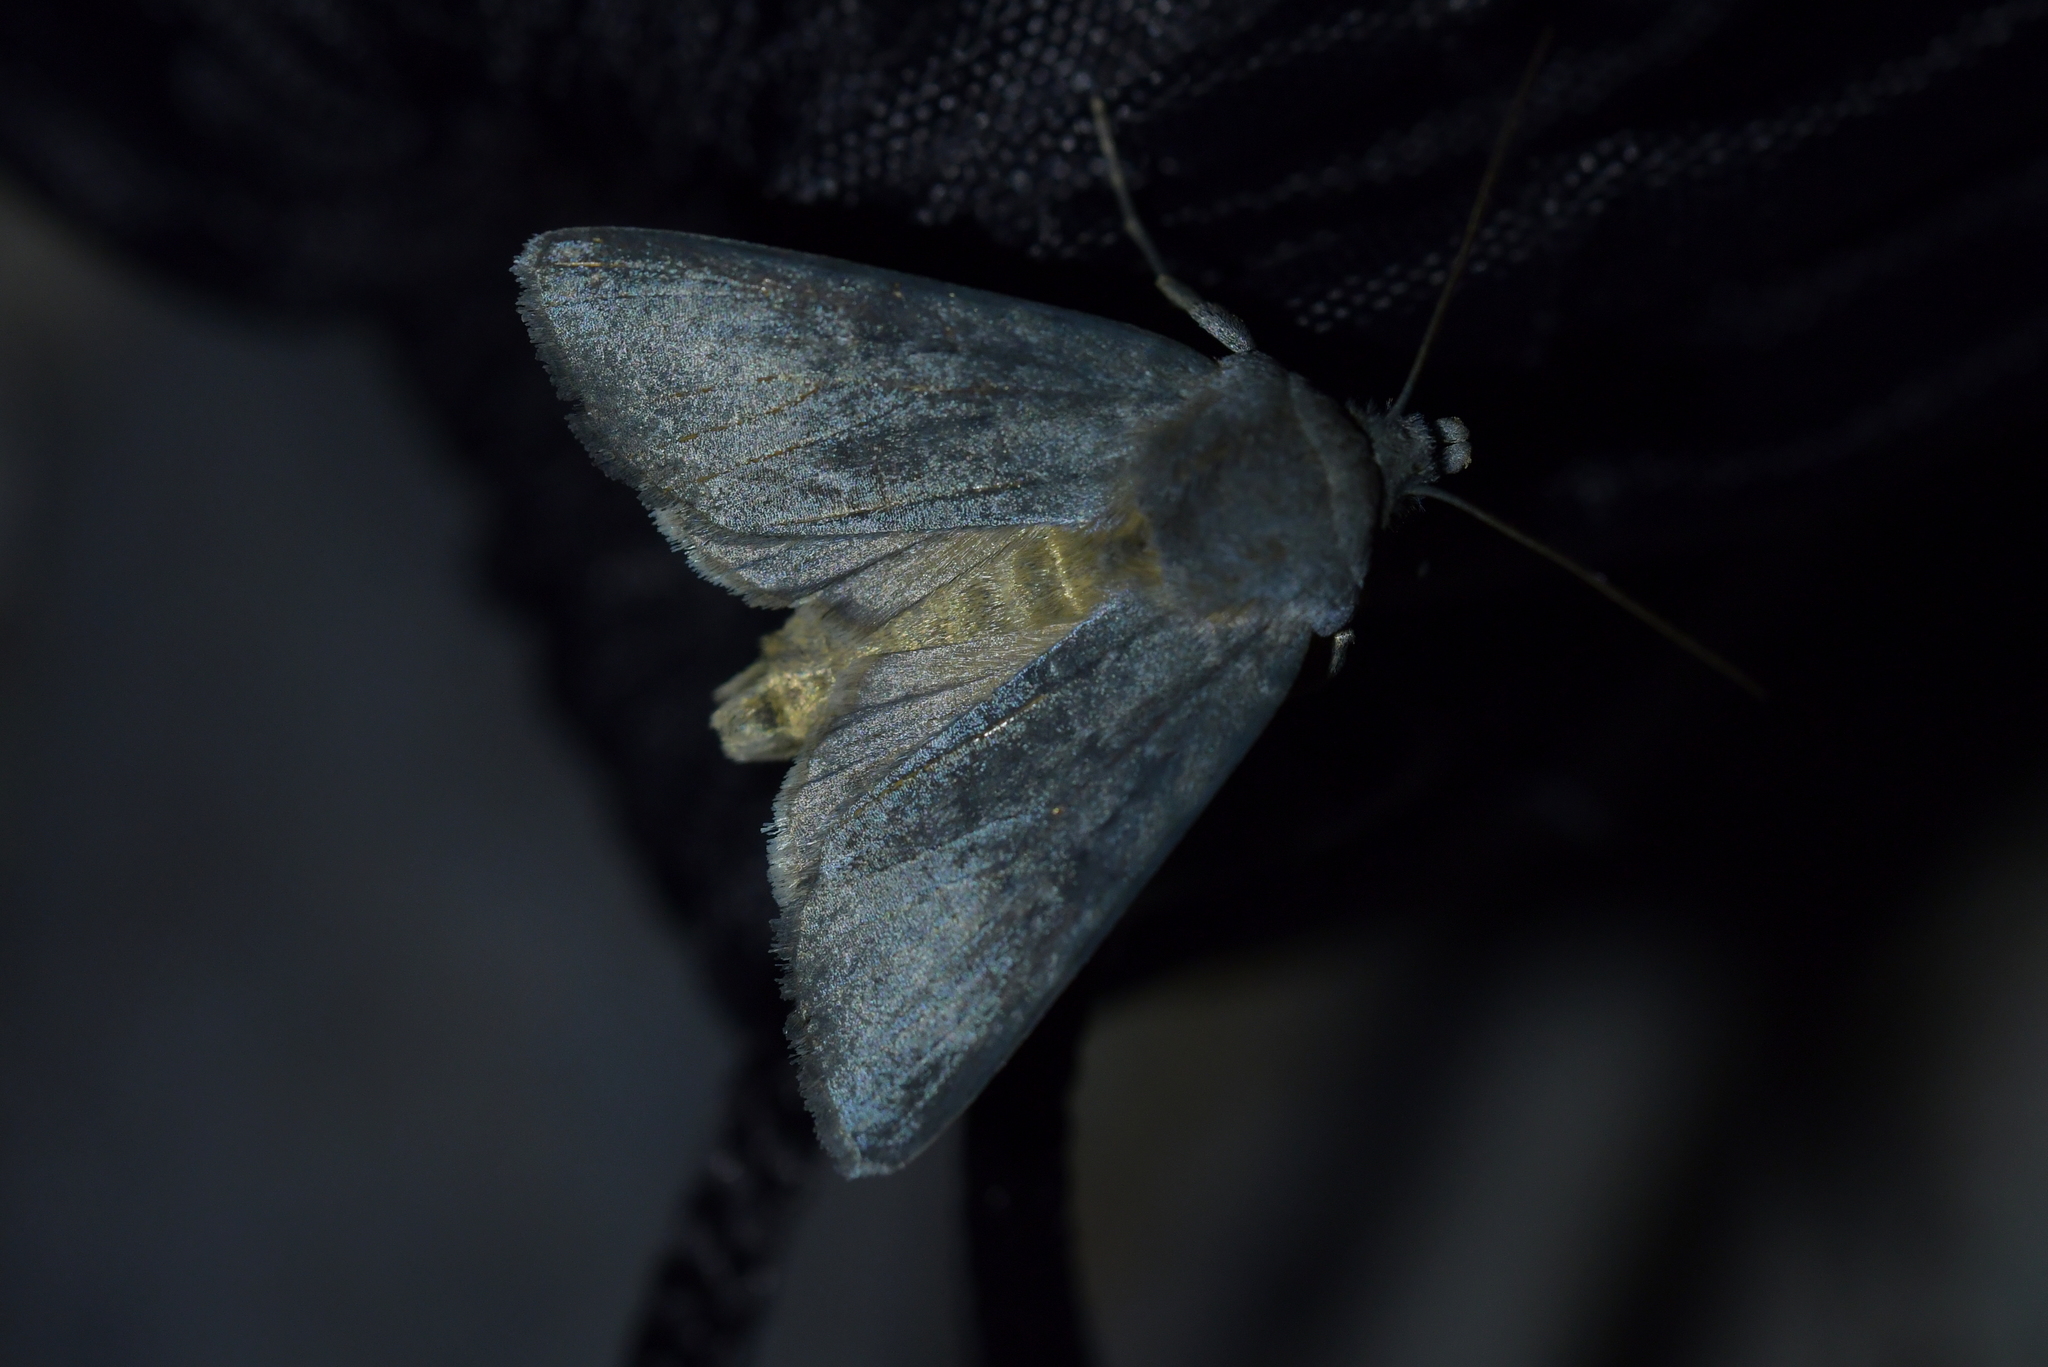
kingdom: Animalia
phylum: Arthropoda
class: Insecta
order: Lepidoptera
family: Noctuidae
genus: Physetica
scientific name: Physetica caerulea
